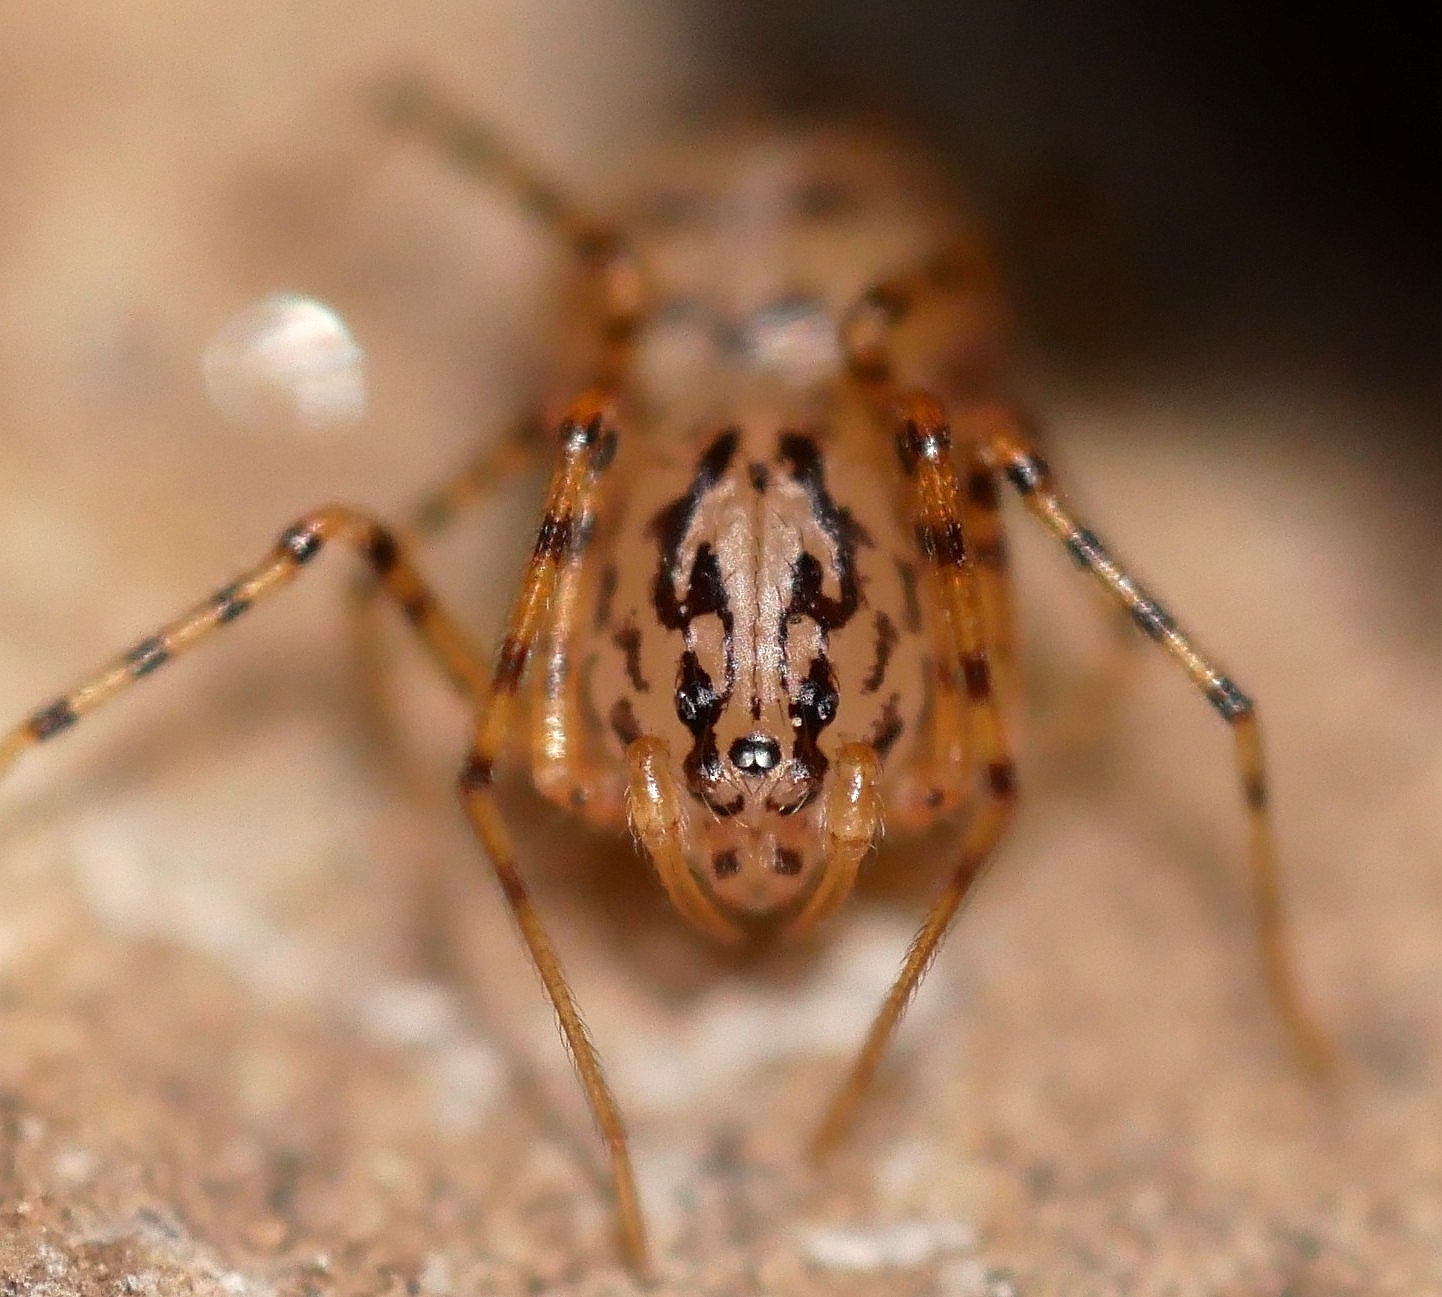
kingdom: Animalia
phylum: Arthropoda
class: Arachnida
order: Araneae
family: Scytodidae
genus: Scytodes
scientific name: Scytodes thoracica
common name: Spitting spider
